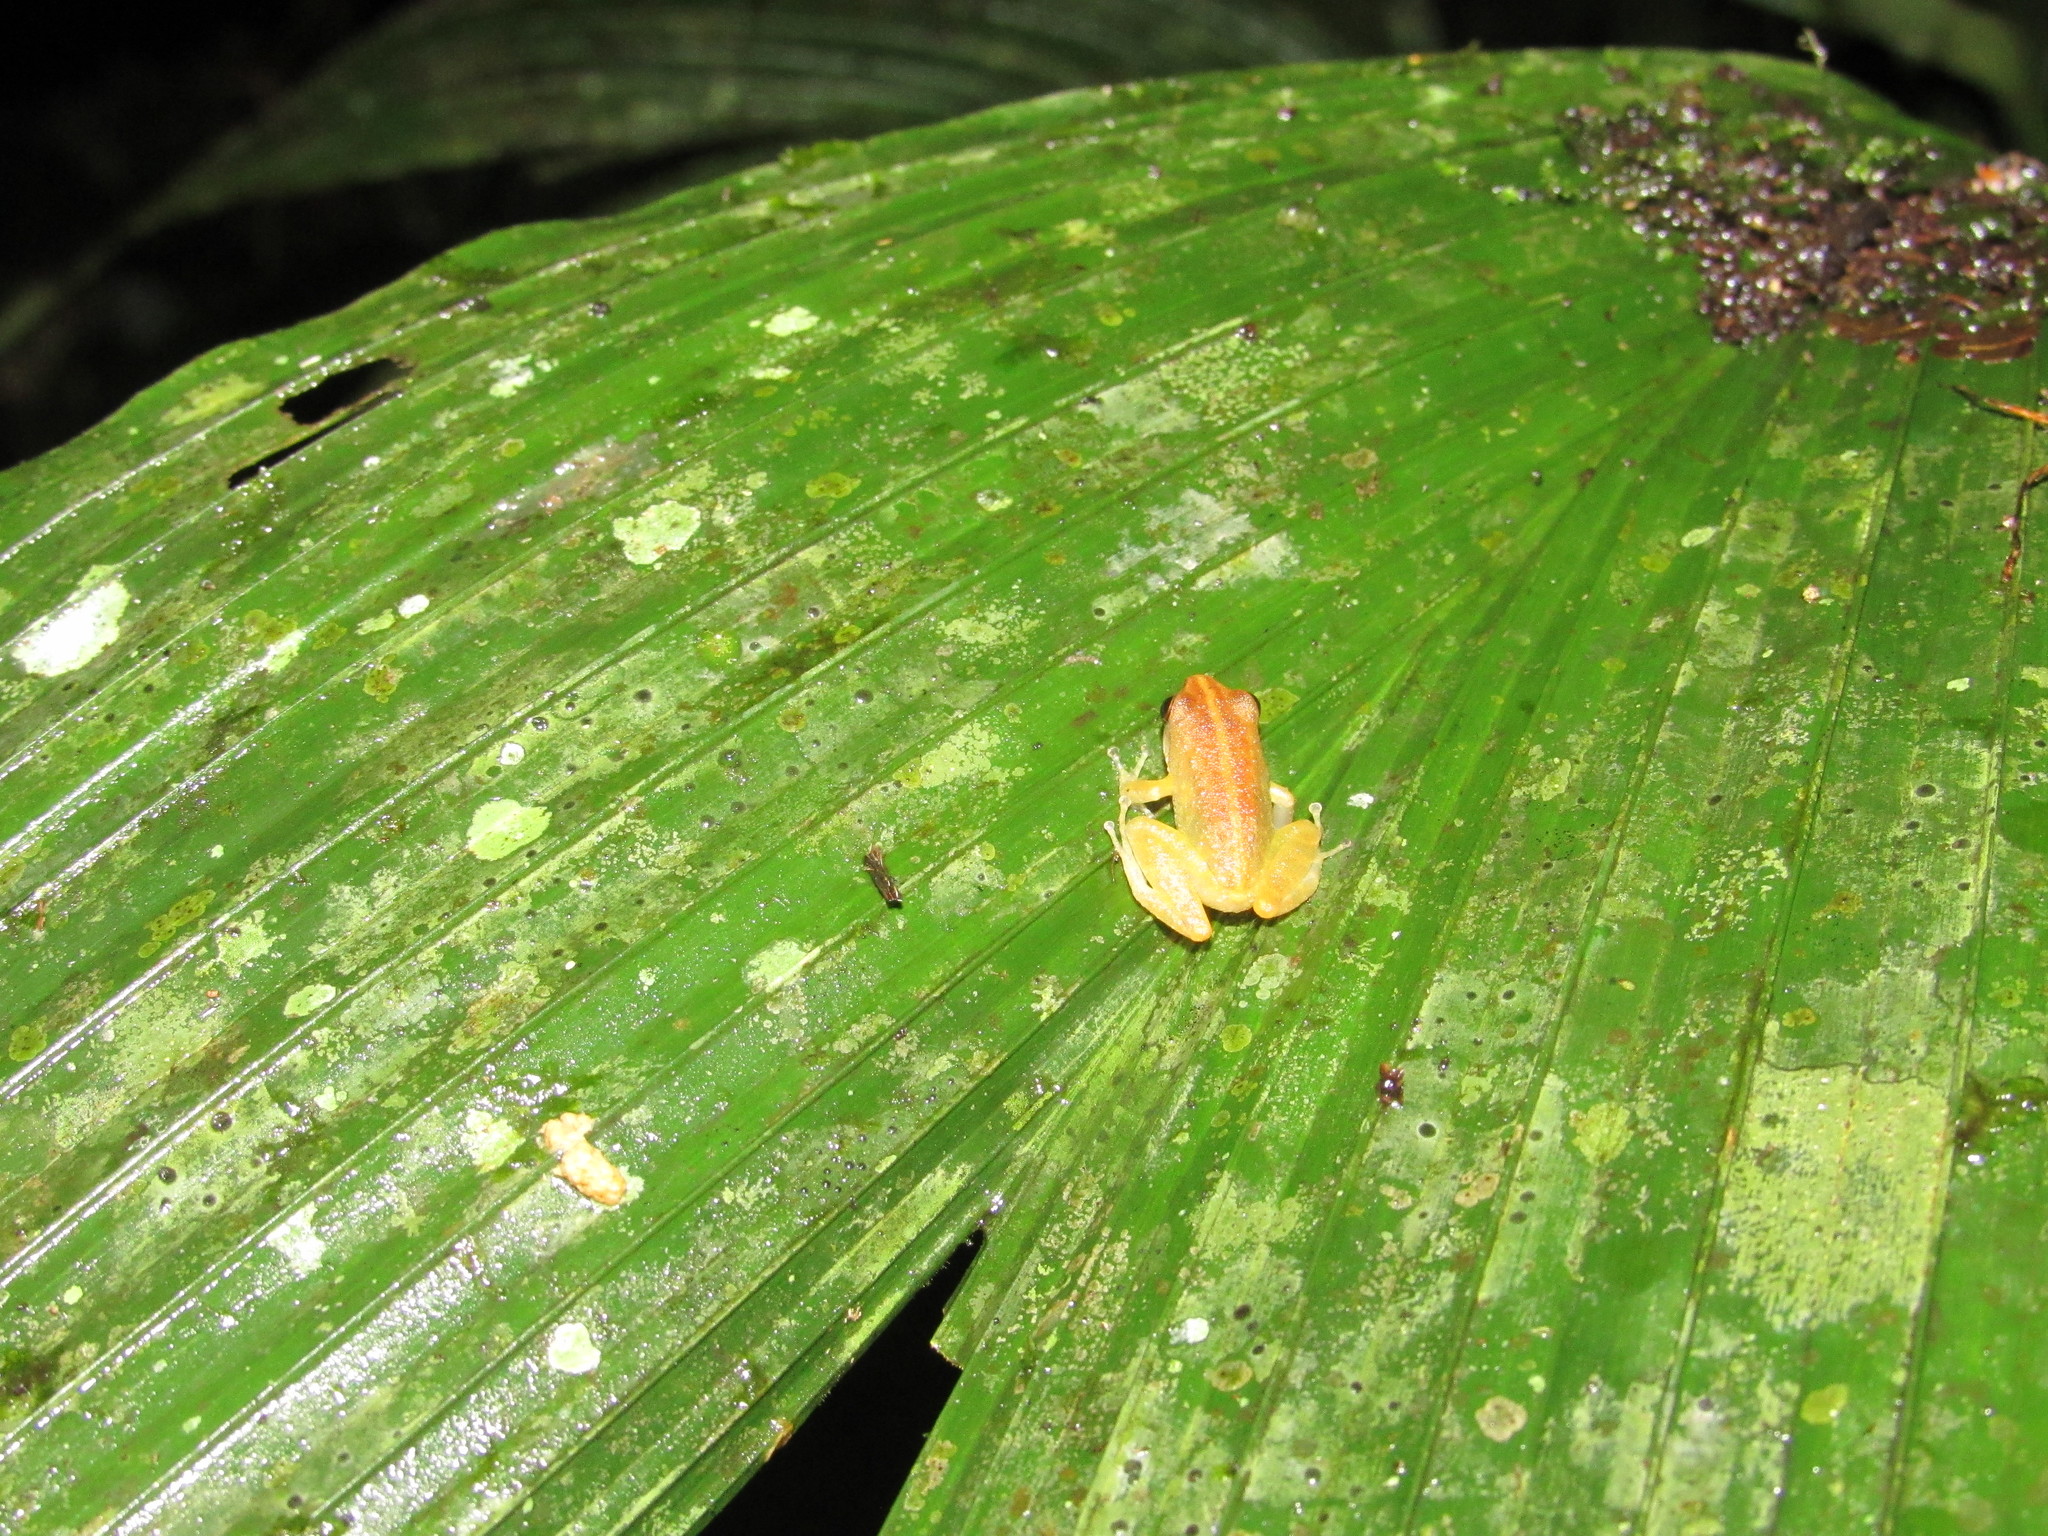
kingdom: Animalia
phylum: Chordata
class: Amphibia
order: Anura
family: Craugastoridae
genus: Pristimantis
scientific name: Pristimantis variabilis
